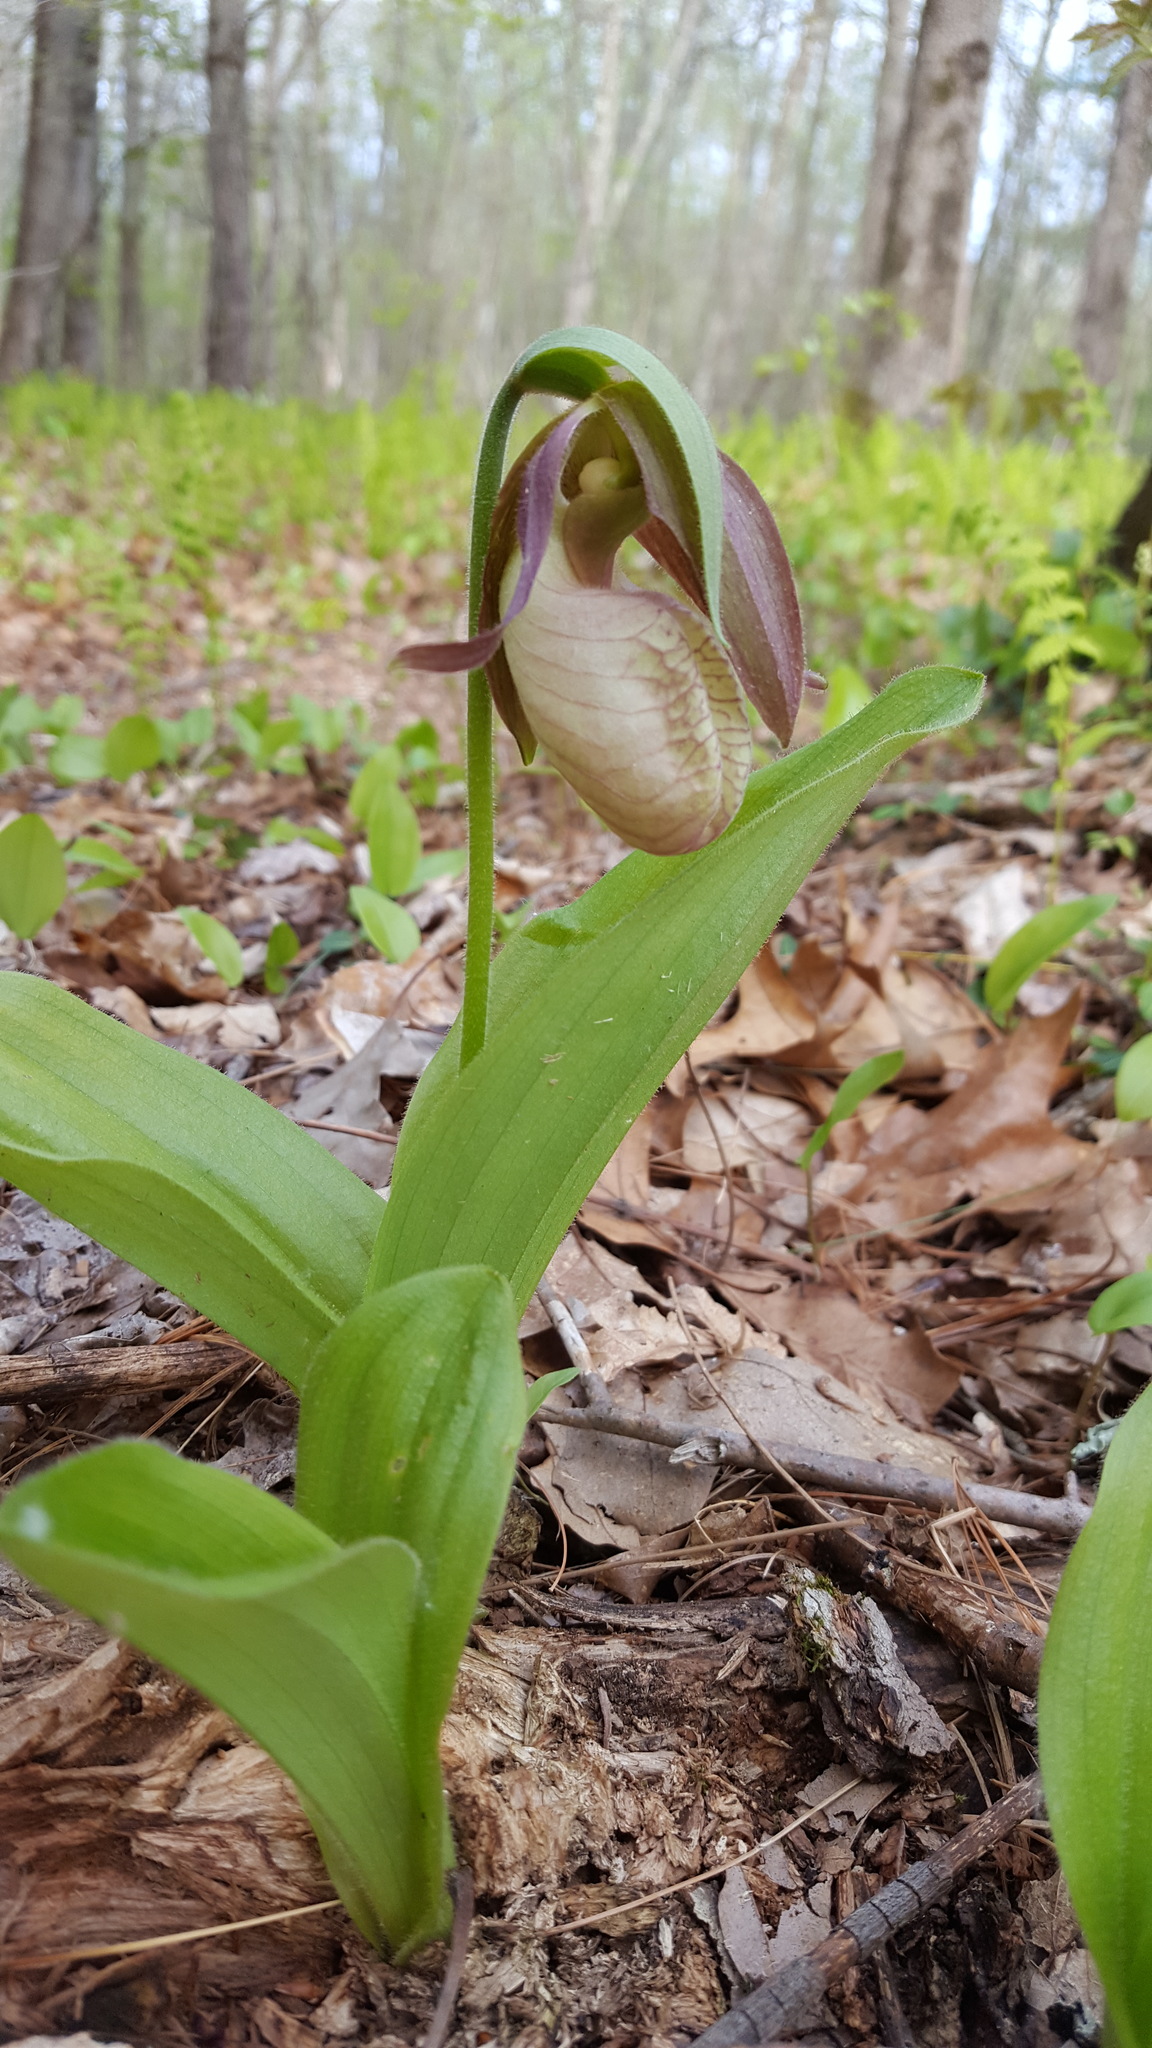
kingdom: Plantae
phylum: Tracheophyta
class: Liliopsida
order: Asparagales
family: Orchidaceae
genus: Cypripedium
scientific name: Cypripedium acaule
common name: Pink lady's-slipper
